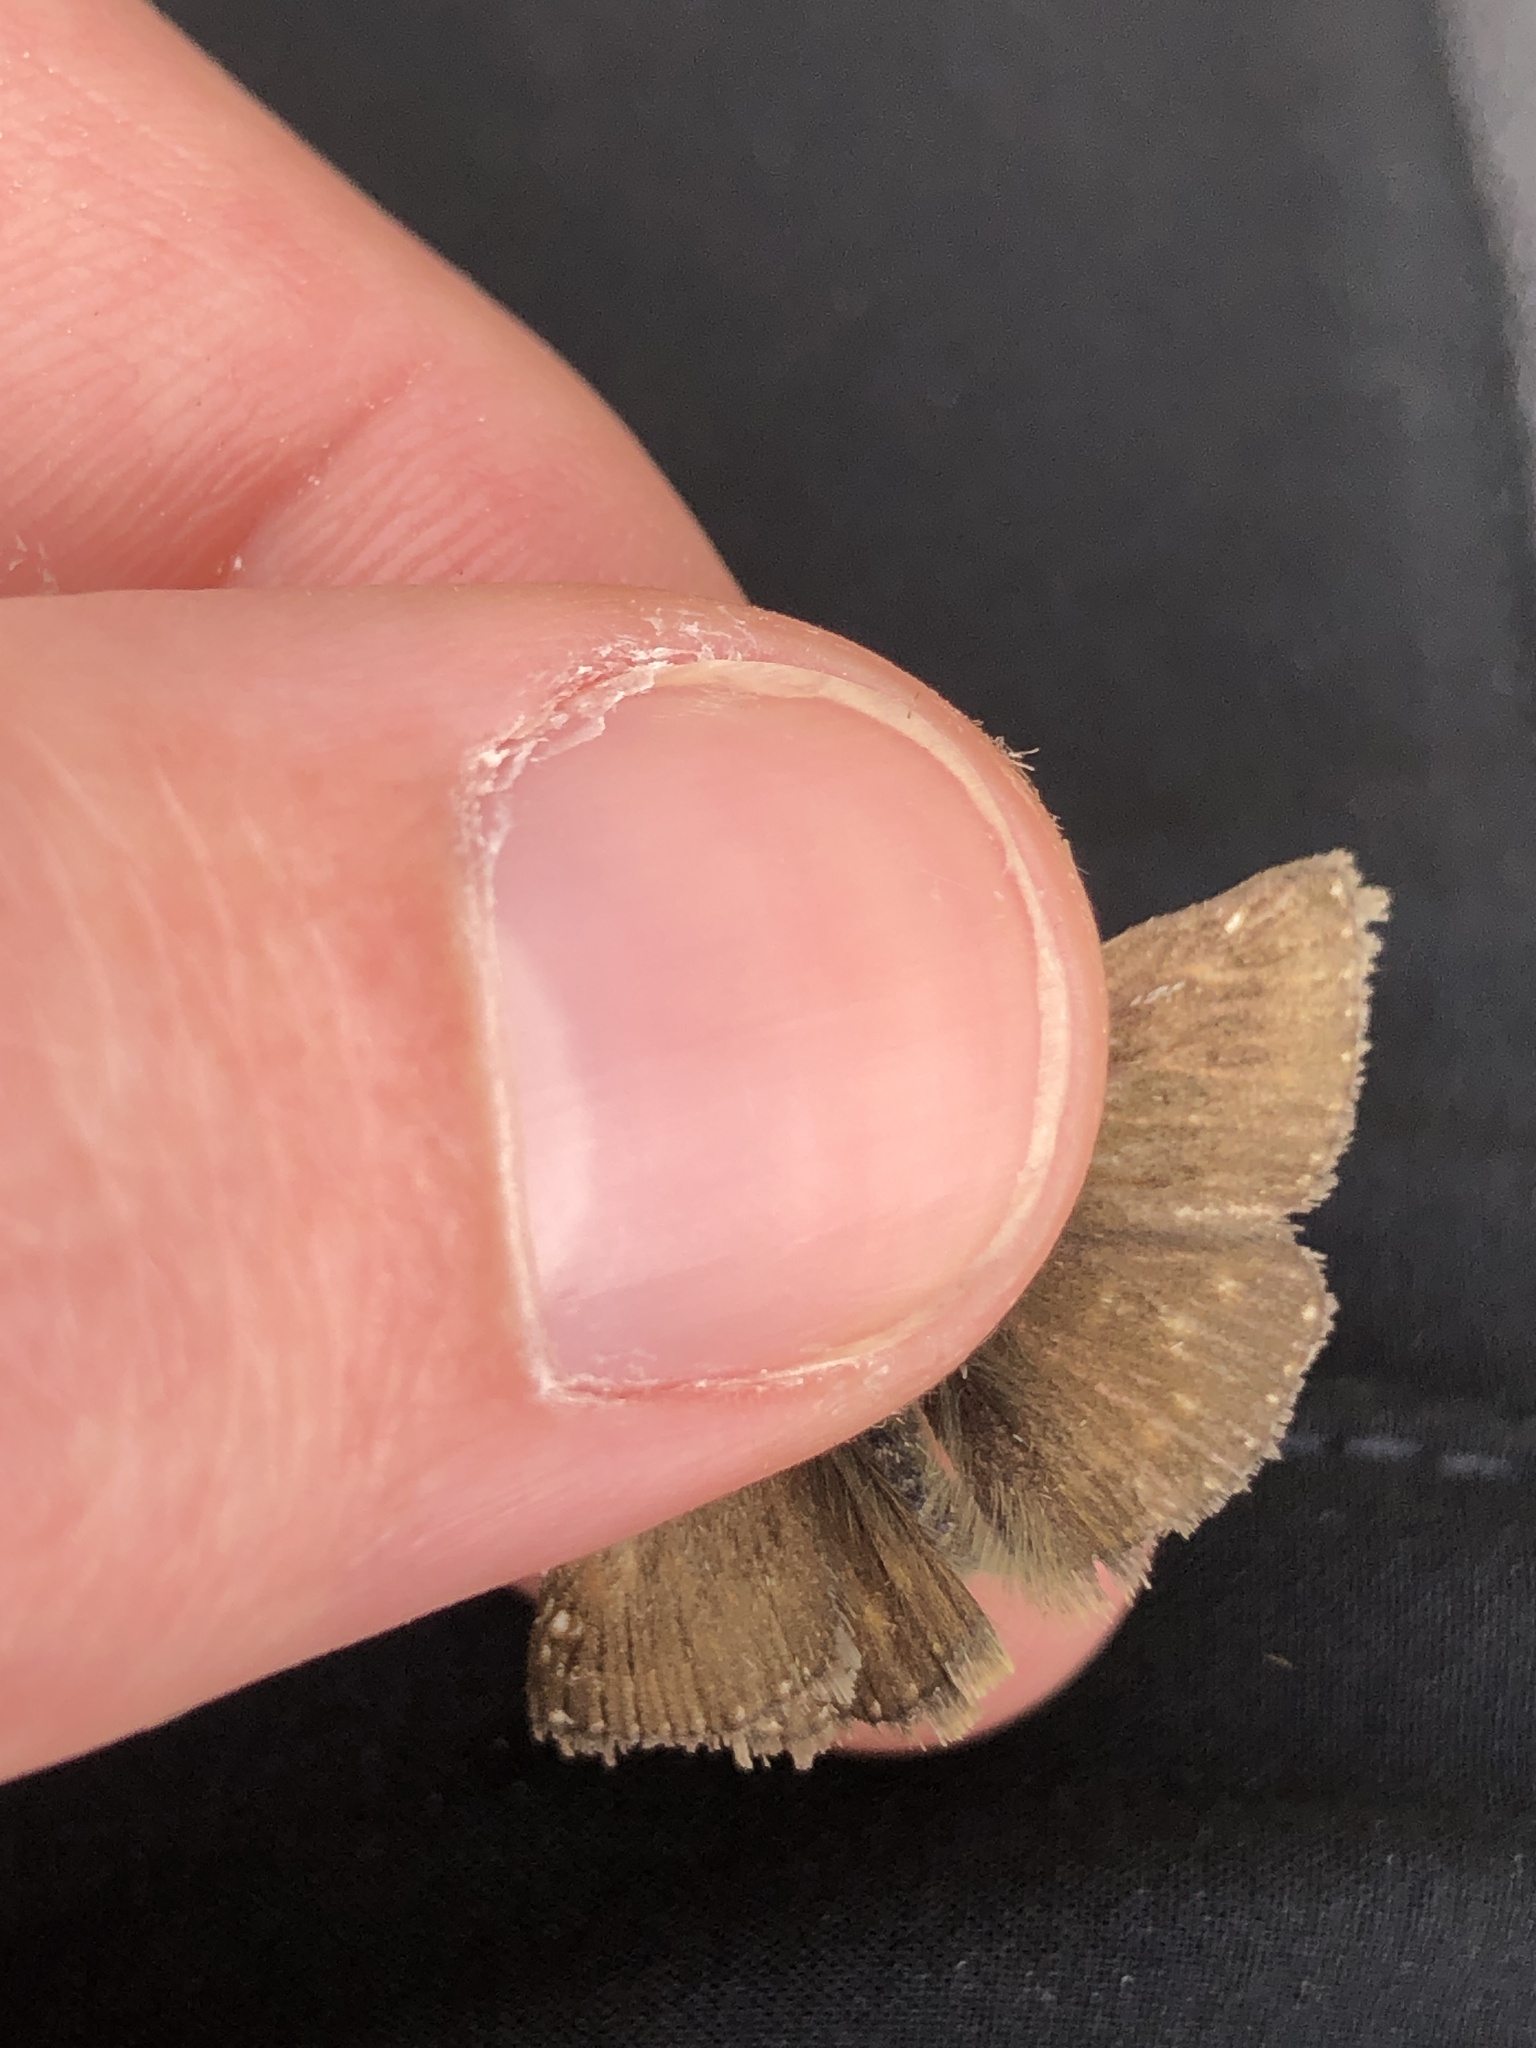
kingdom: Animalia
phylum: Arthropoda
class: Insecta
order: Lepidoptera
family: Hesperiidae
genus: Erynnis
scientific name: Erynnis tages
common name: Dingy skipper
